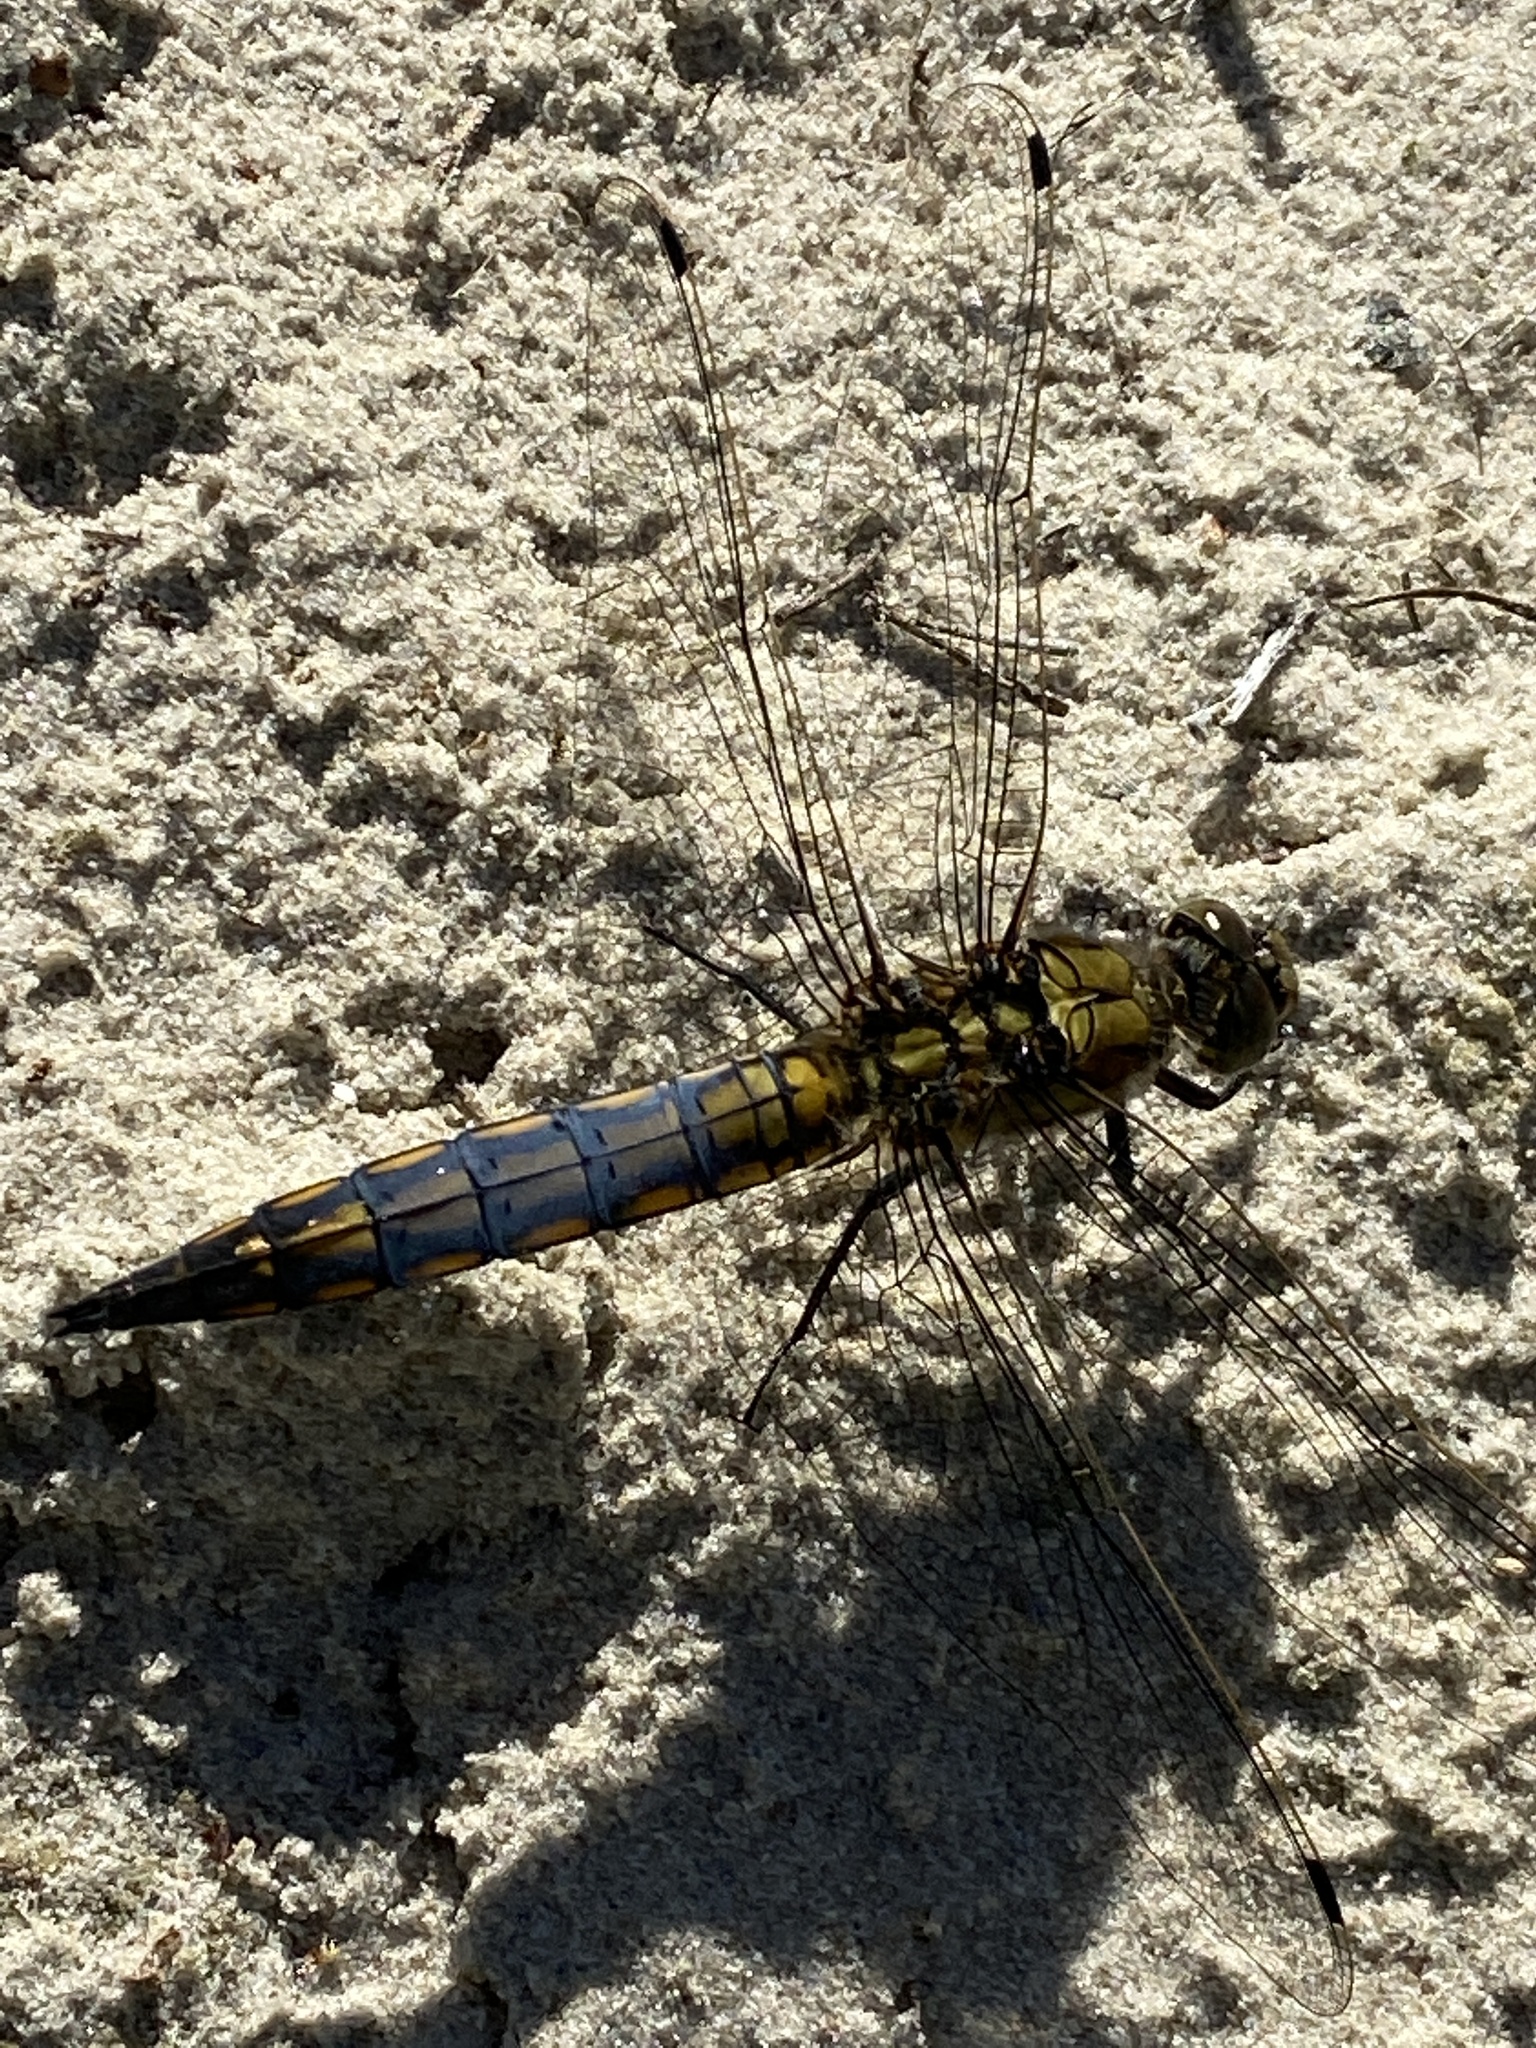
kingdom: Animalia
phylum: Arthropoda
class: Insecta
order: Odonata
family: Libellulidae
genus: Orthetrum
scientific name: Orthetrum cancellatum
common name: Black-tailed skimmer
